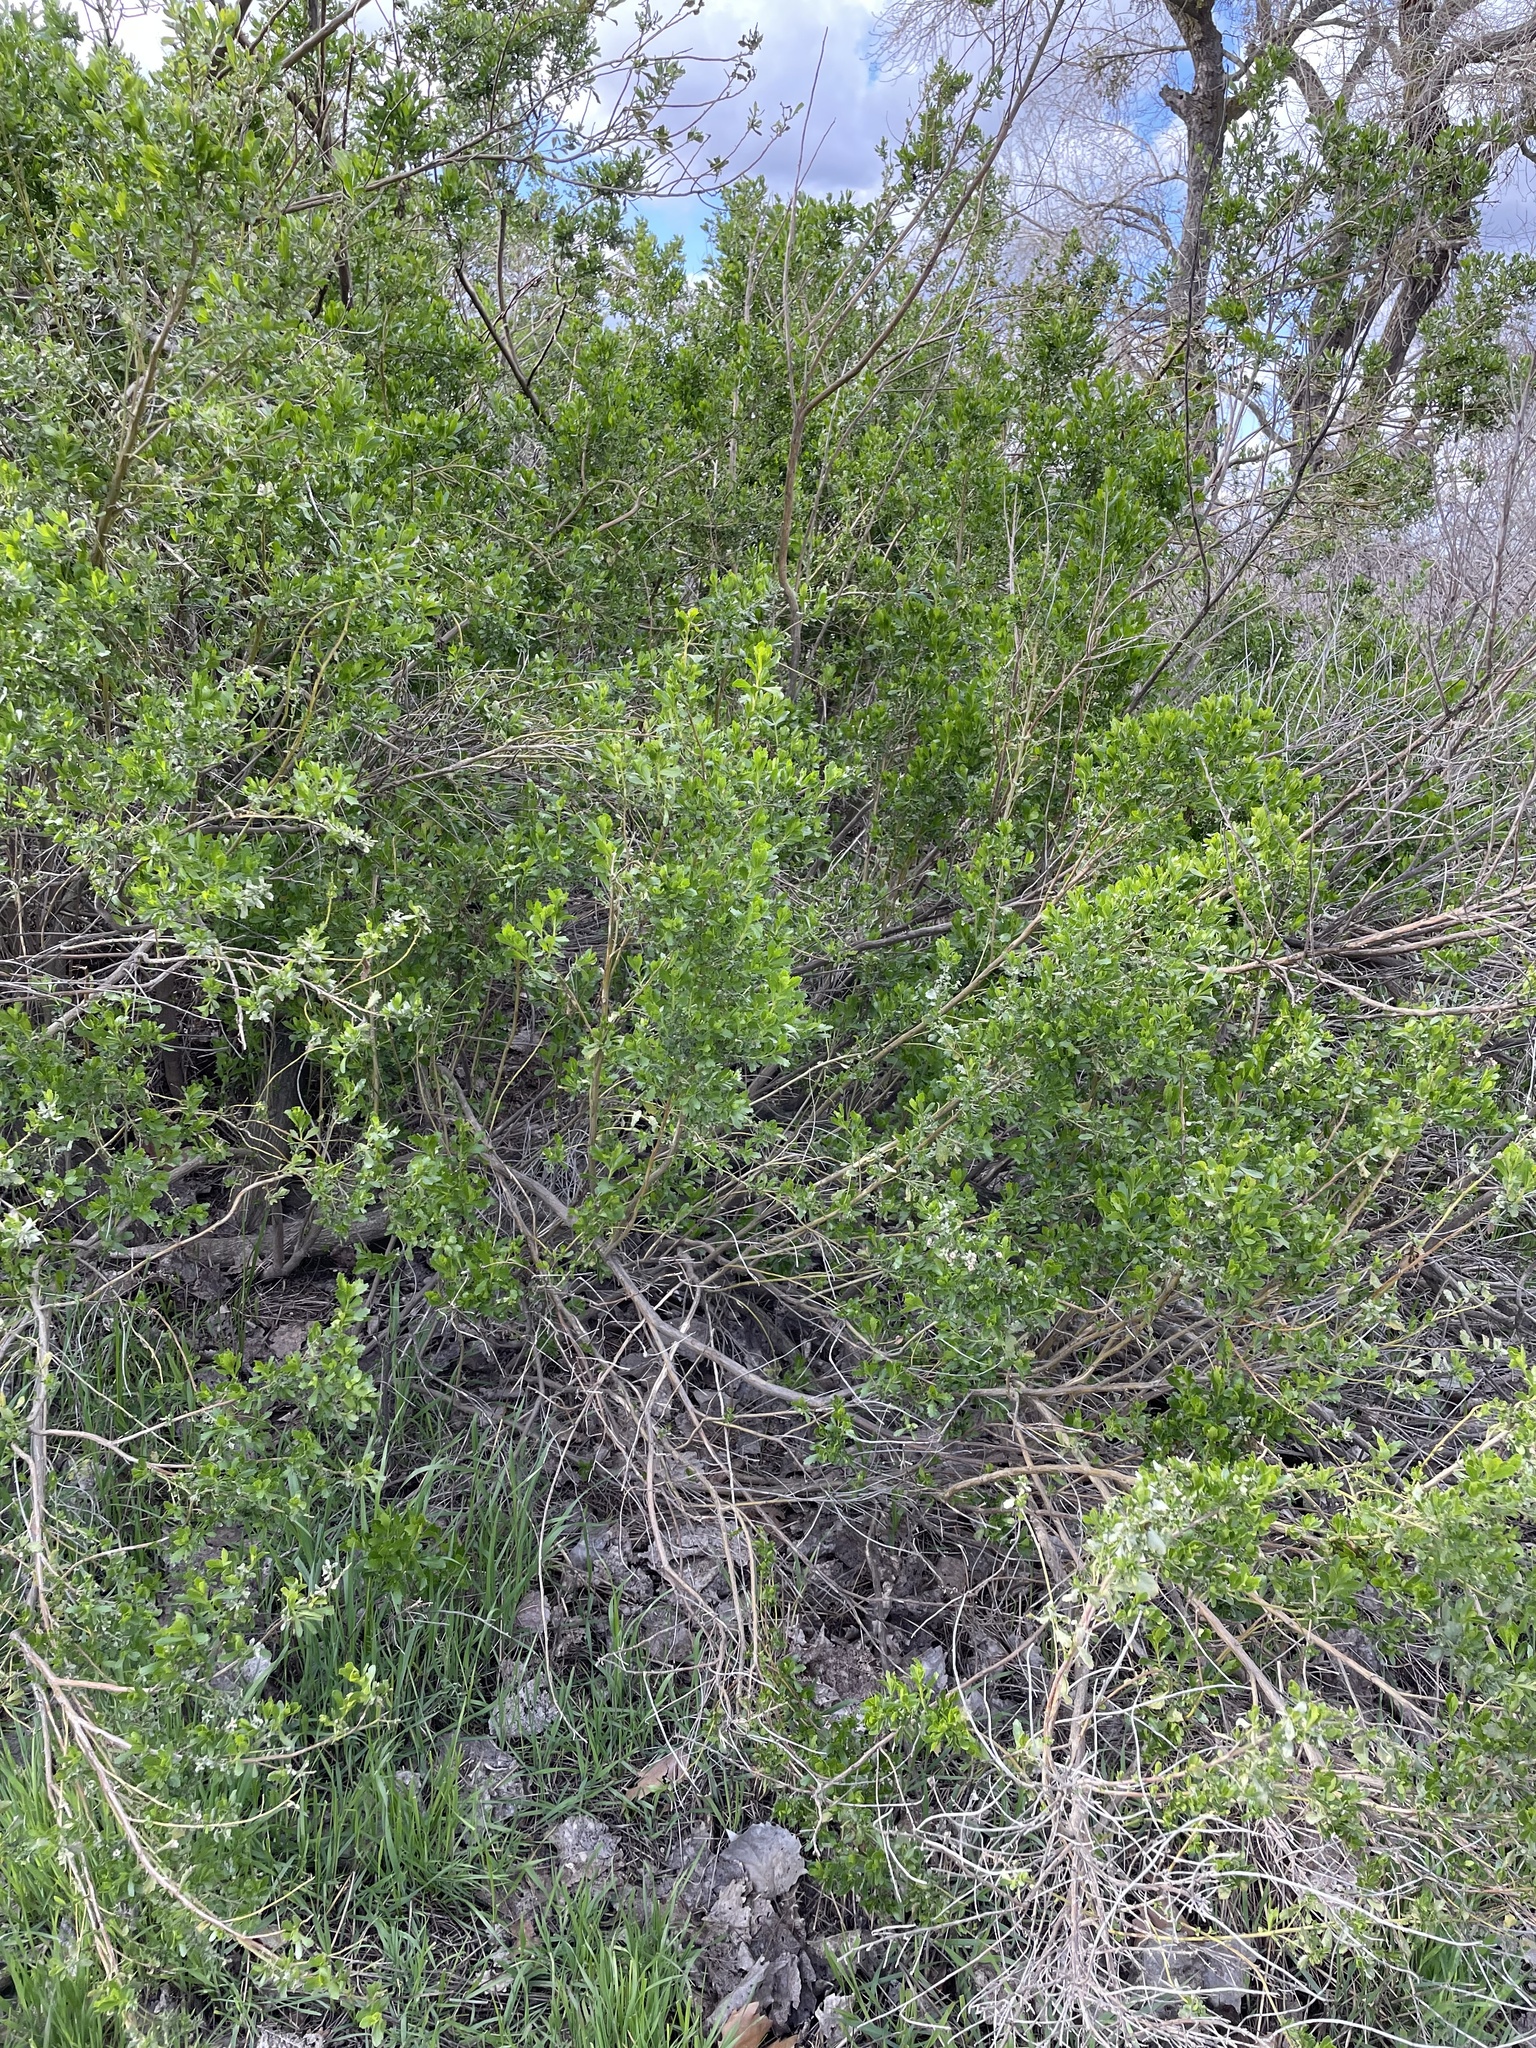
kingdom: Plantae
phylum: Tracheophyta
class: Magnoliopsida
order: Asterales
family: Asteraceae
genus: Baccharis
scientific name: Baccharis pilularis
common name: Coyotebrush
